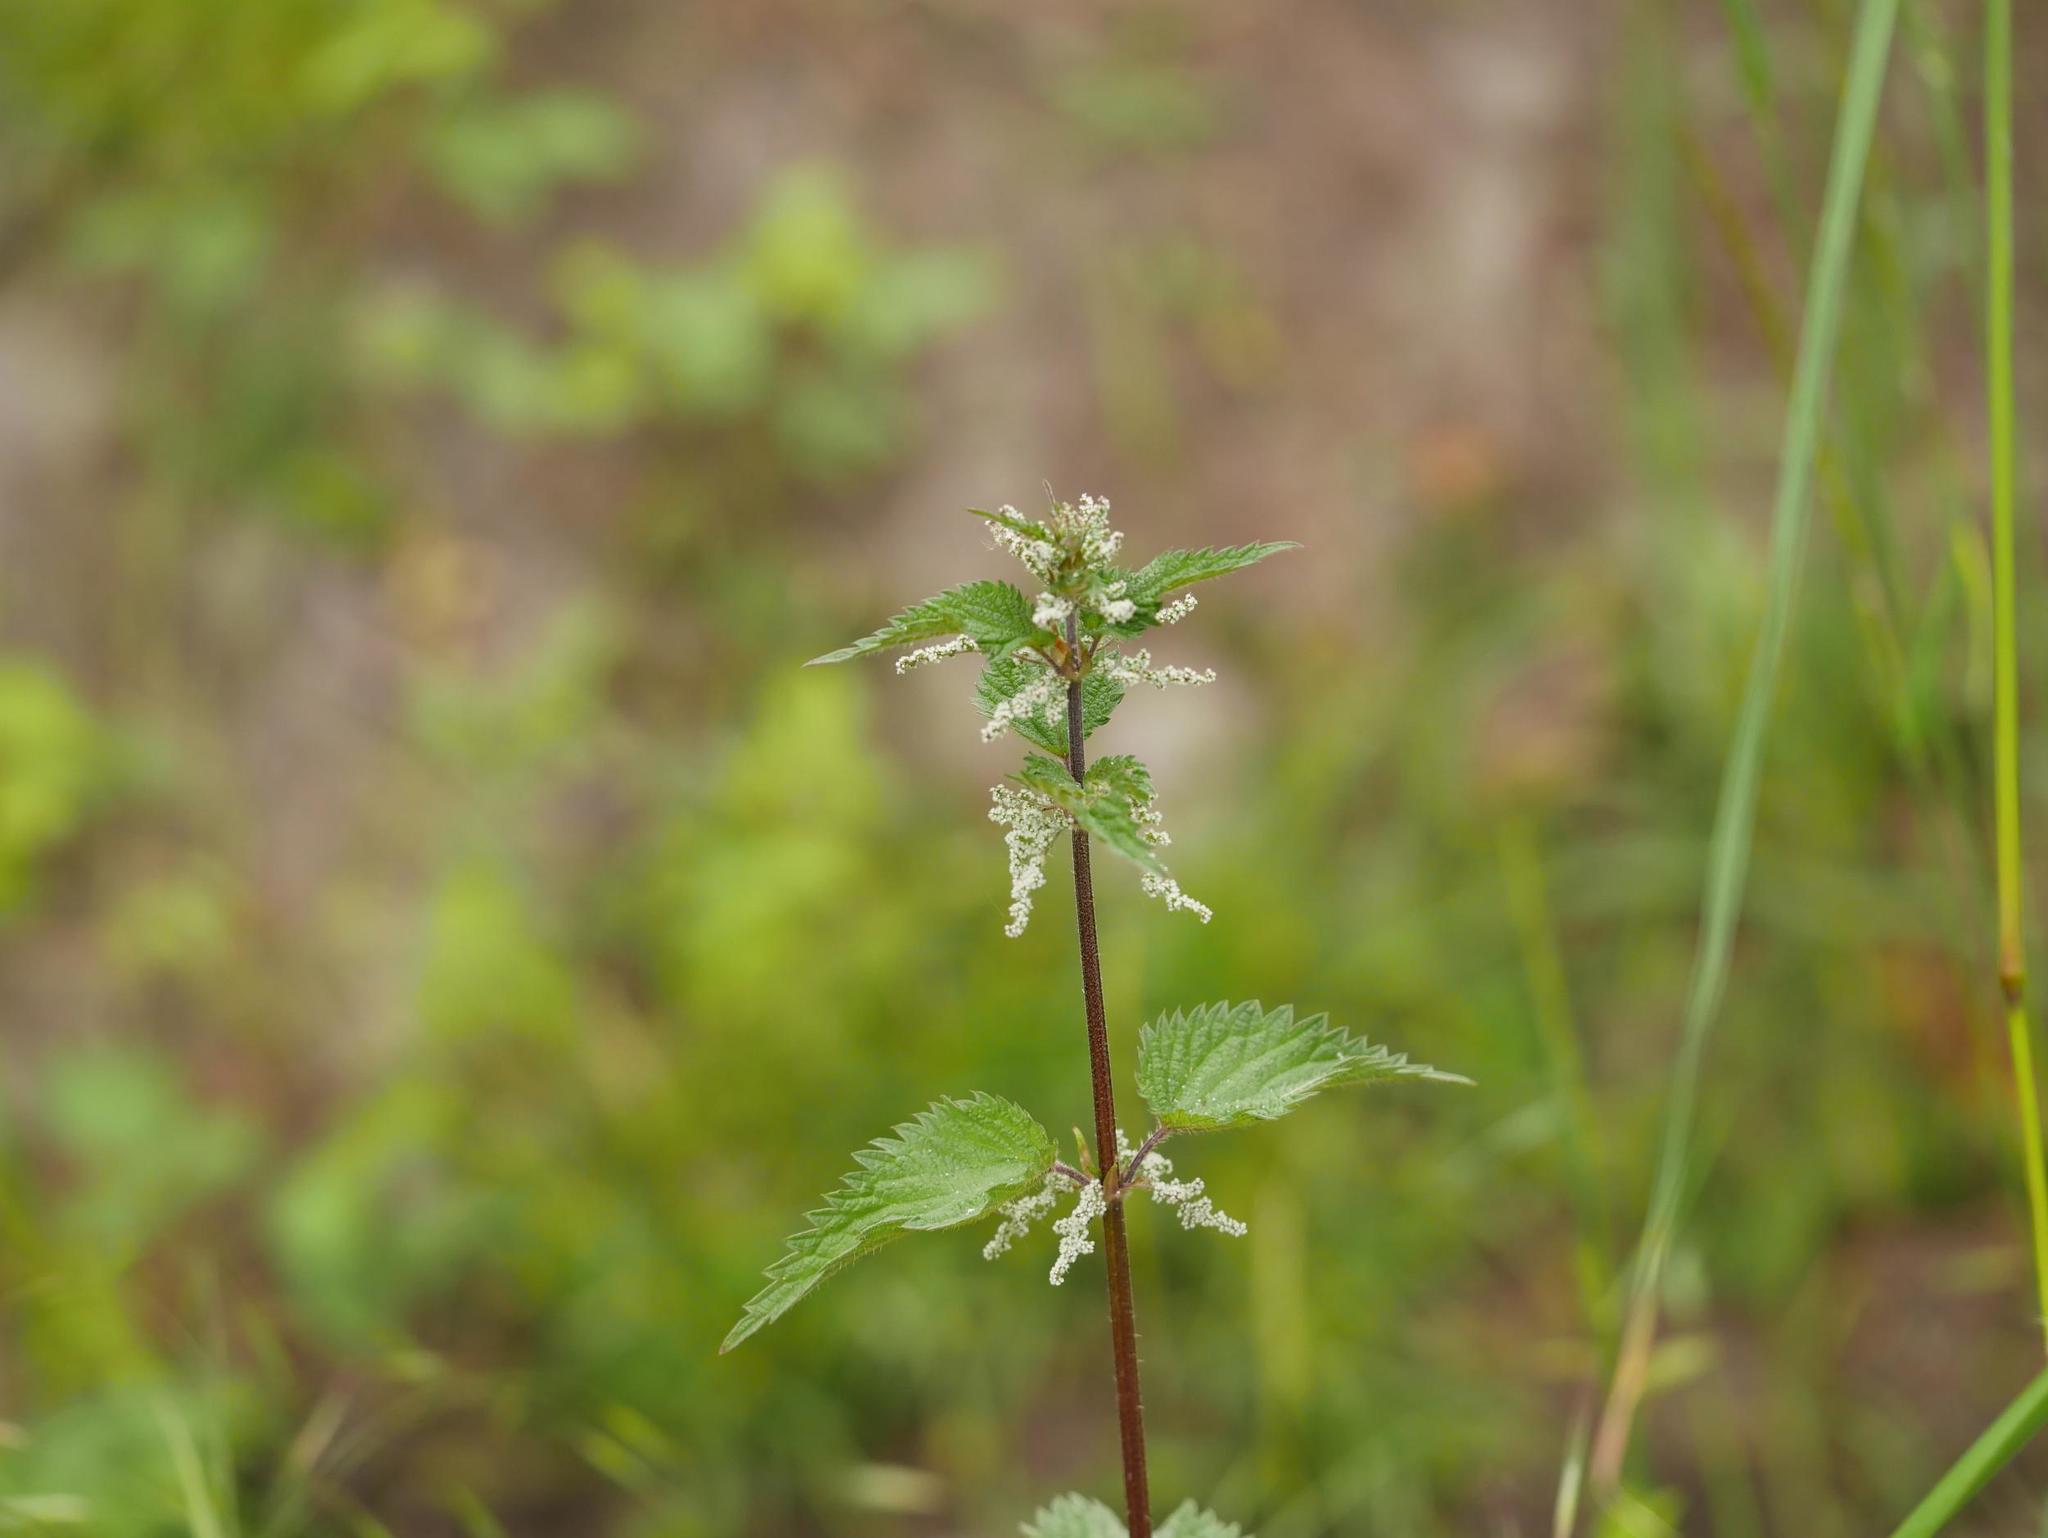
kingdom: Plantae
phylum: Tracheophyta
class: Magnoliopsida
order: Rosales
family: Urticaceae
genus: Urtica
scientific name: Urtica dioica
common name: Common nettle
